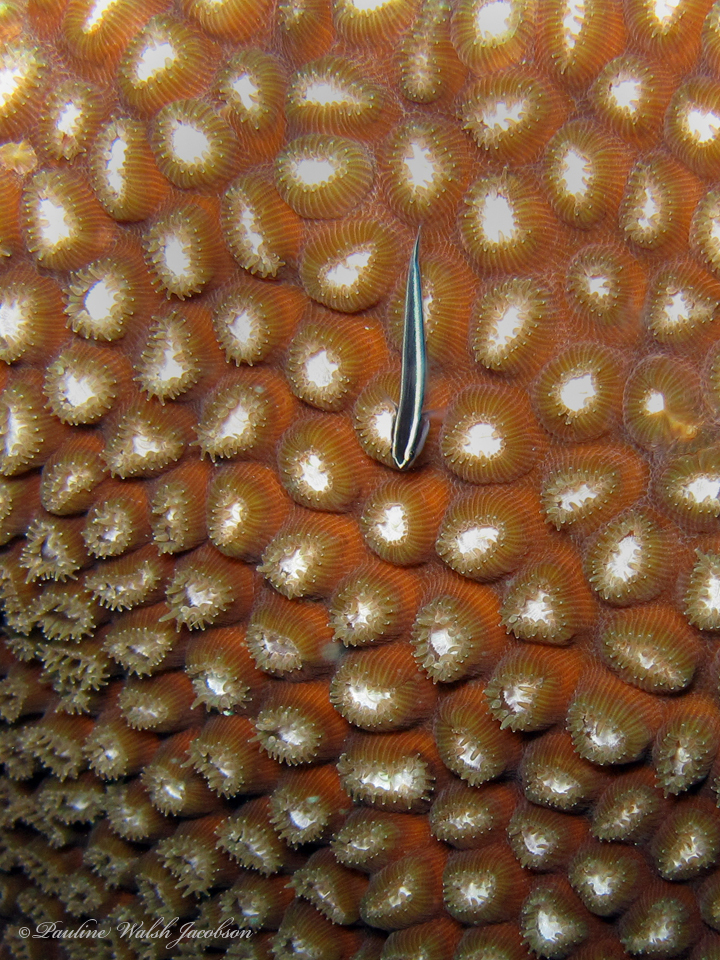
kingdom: Animalia
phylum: Chordata
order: Perciformes
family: Gobiidae
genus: Elacatinus
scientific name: Elacatinus prochilos
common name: Broadstripe goby
